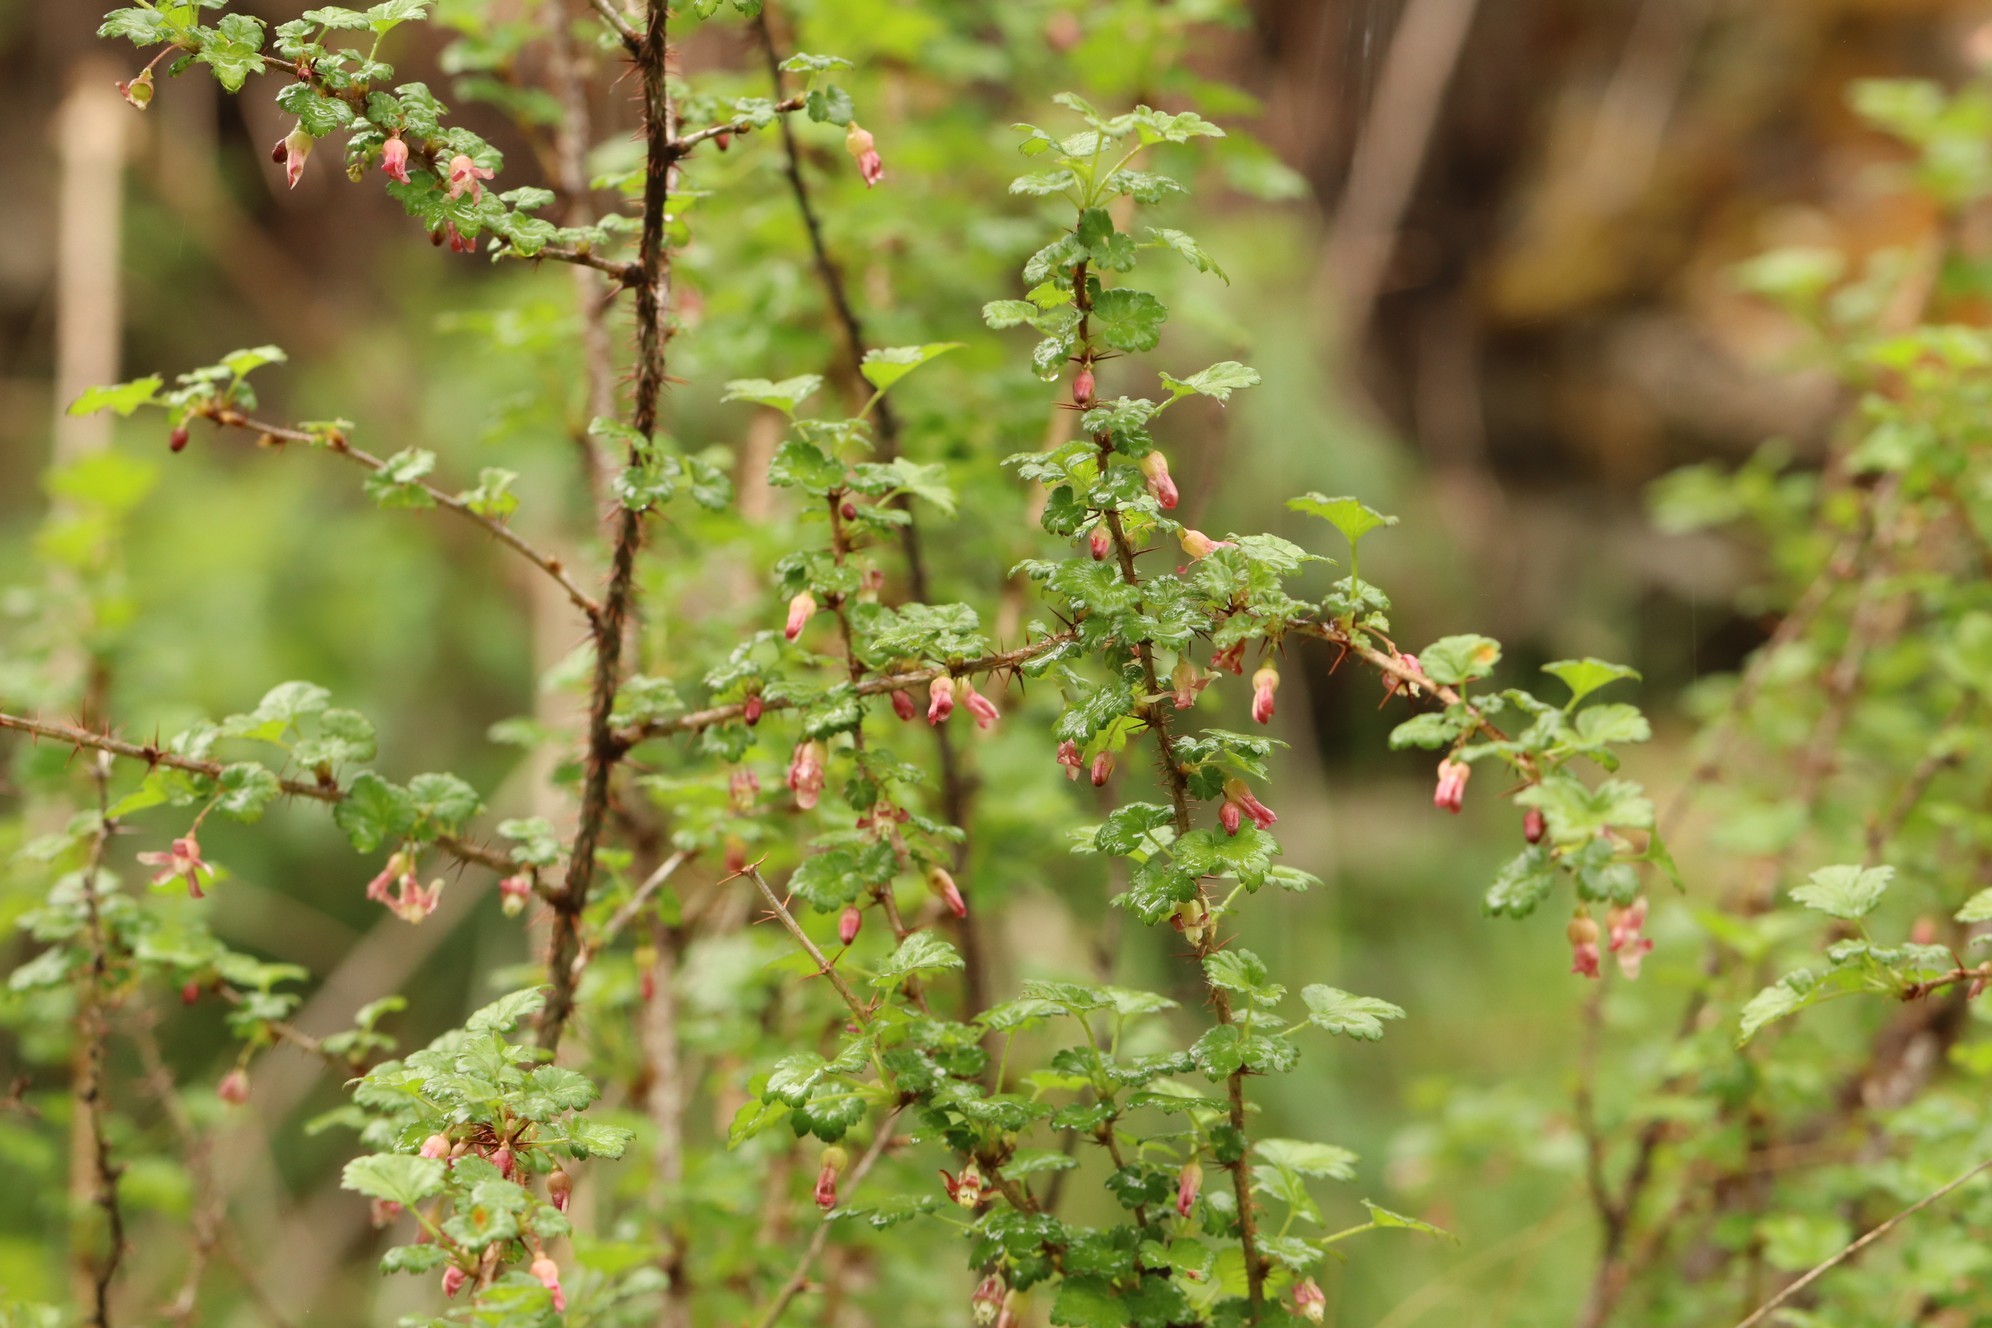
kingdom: Plantae
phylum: Tracheophyta
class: Magnoliopsida
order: Saxifragales
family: Grossulariaceae
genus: Ribes
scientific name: Ribes aciculare
